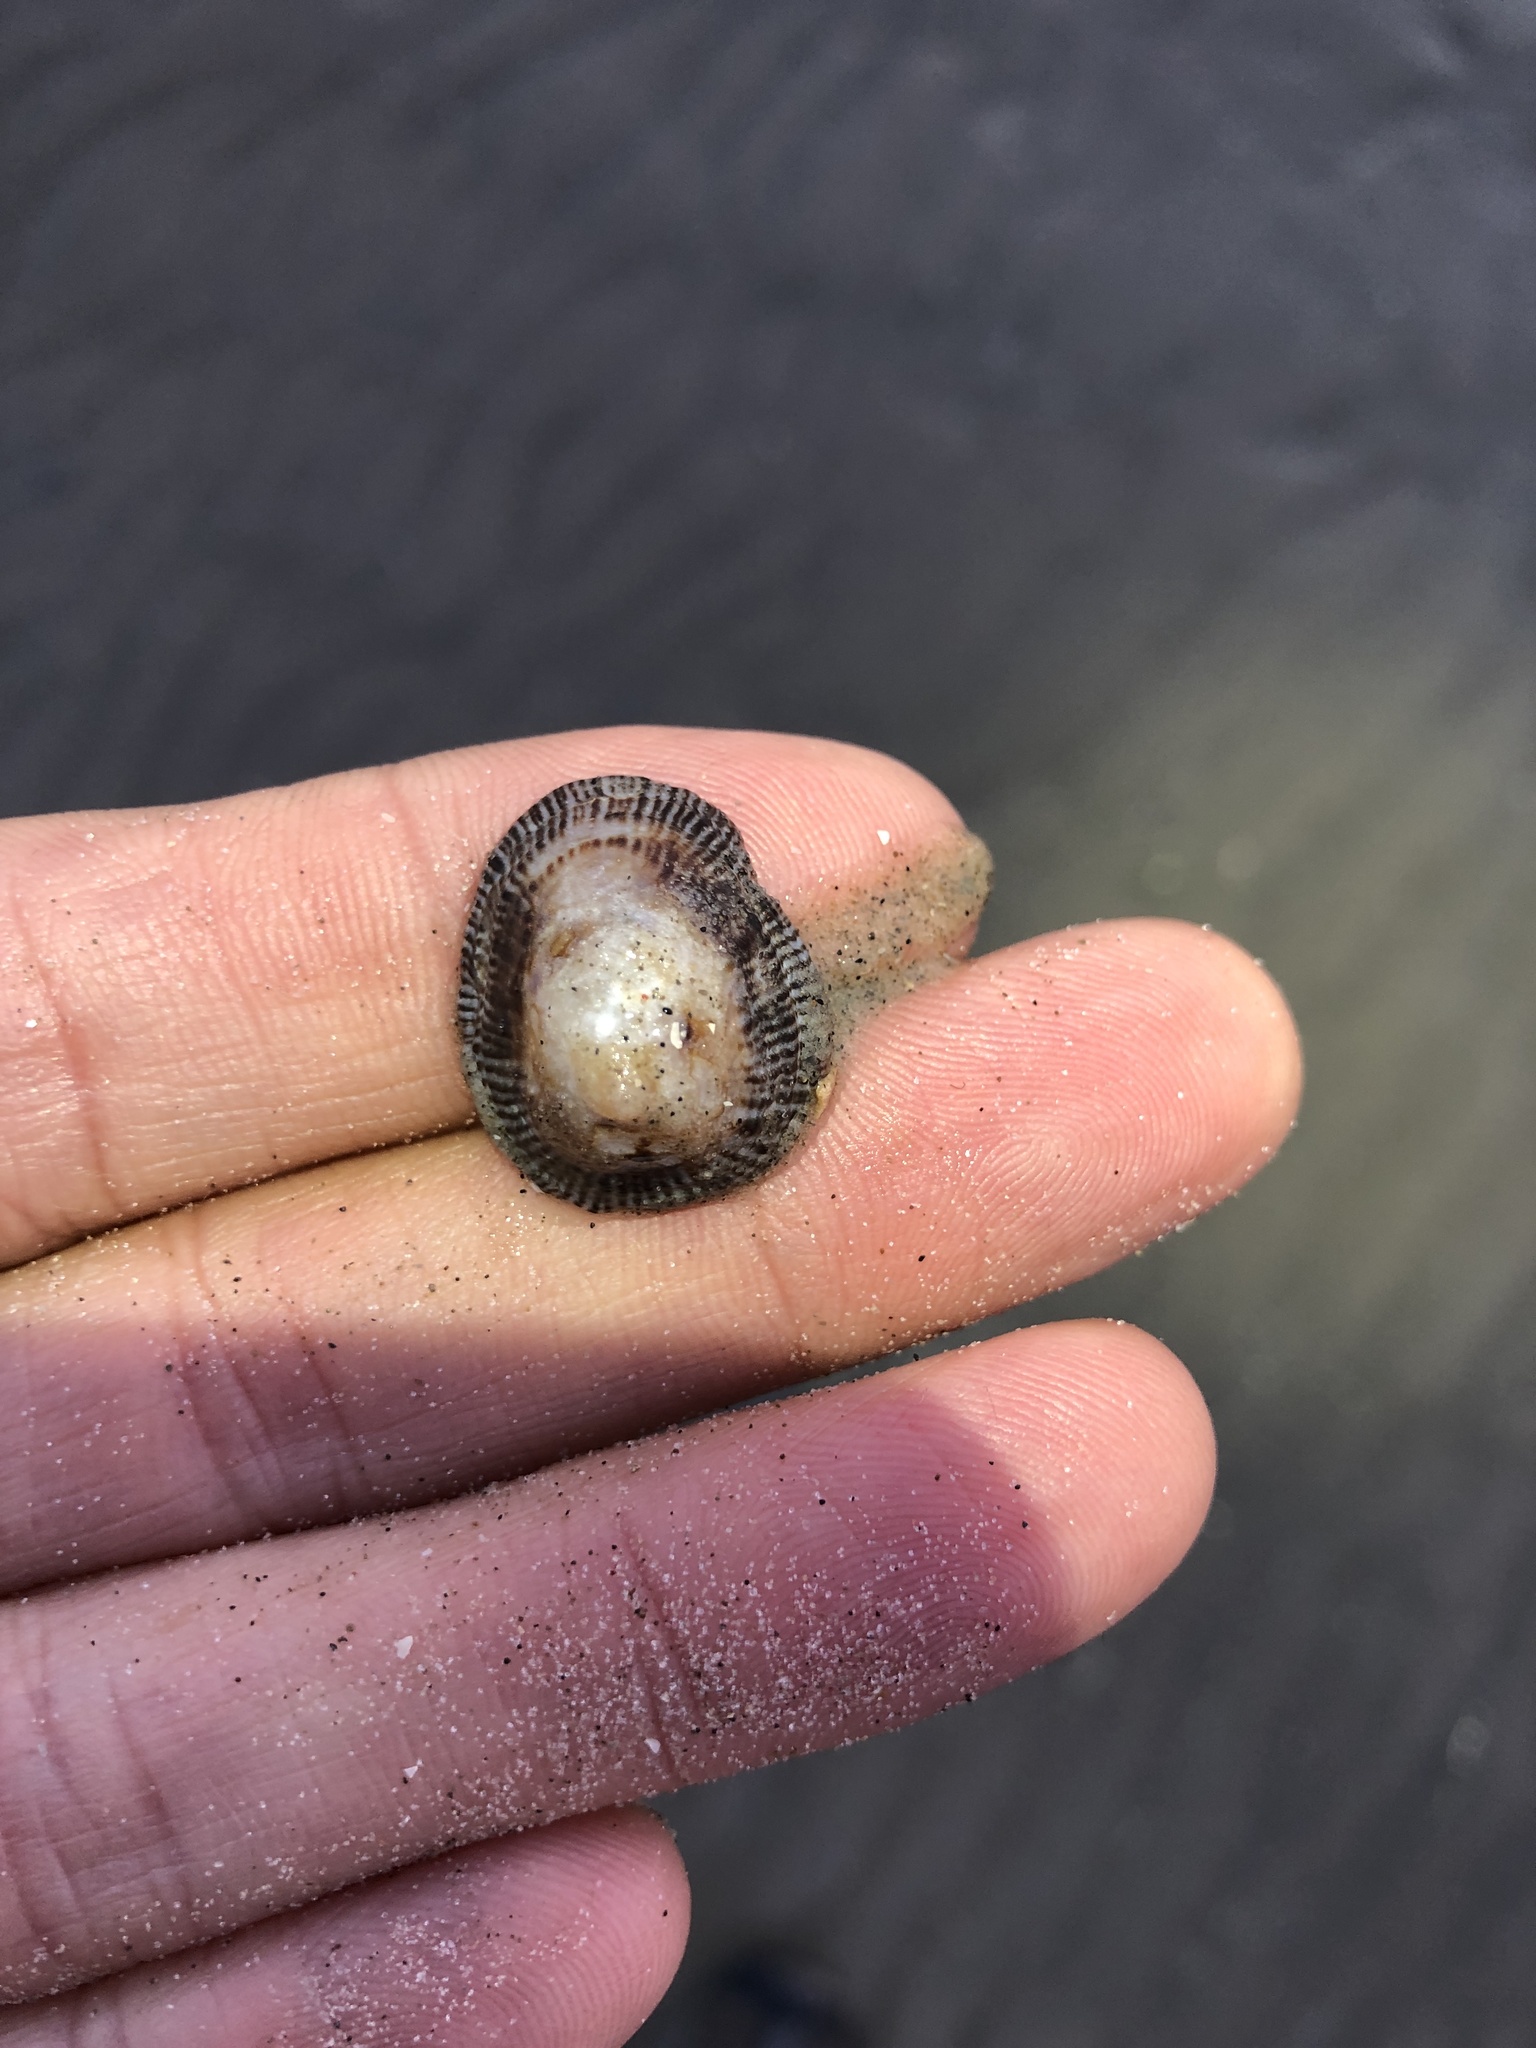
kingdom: Animalia
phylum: Mollusca
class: Gastropoda
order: Siphonariida
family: Siphonariidae
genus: Siphonaria
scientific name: Siphonaria naufragum
